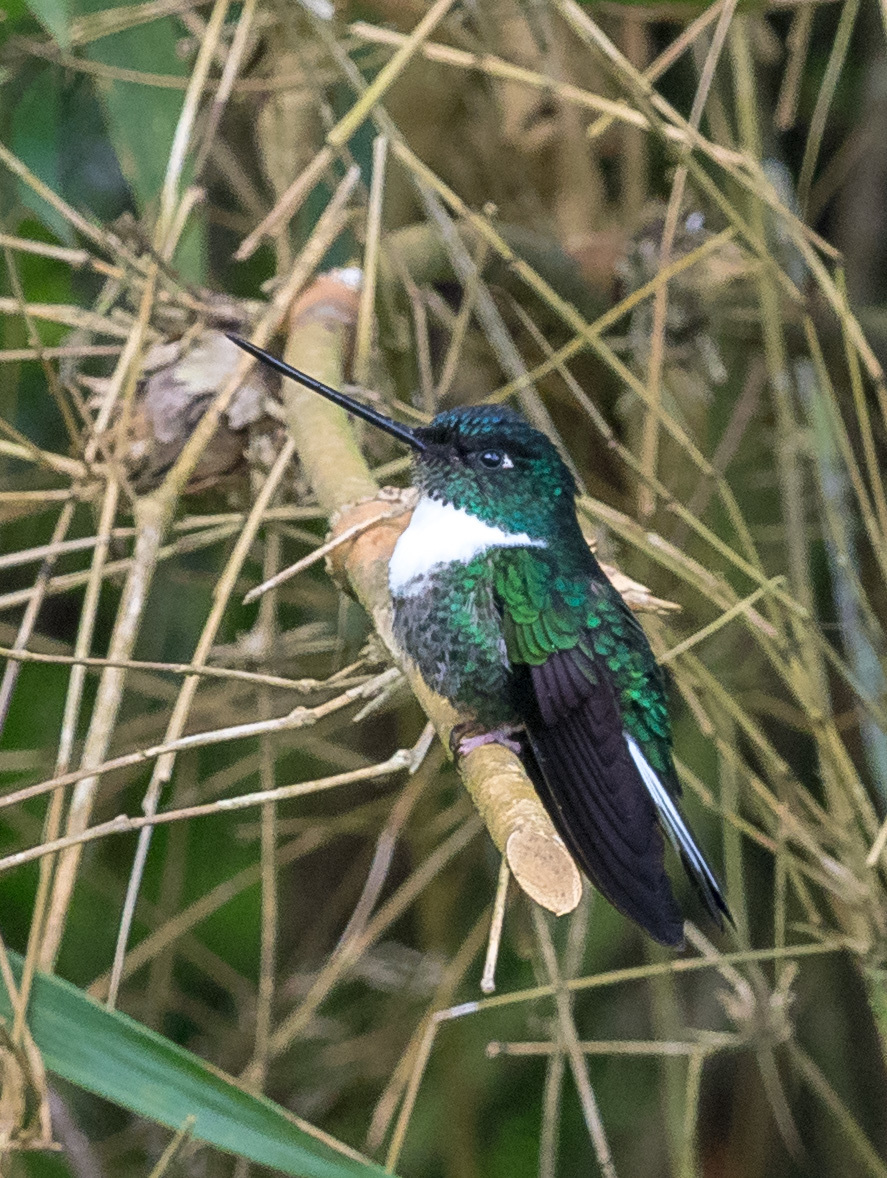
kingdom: Animalia
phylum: Chordata
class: Aves
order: Apodiformes
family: Trochilidae
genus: Coeligena
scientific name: Coeligena torquata
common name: Collared inca
